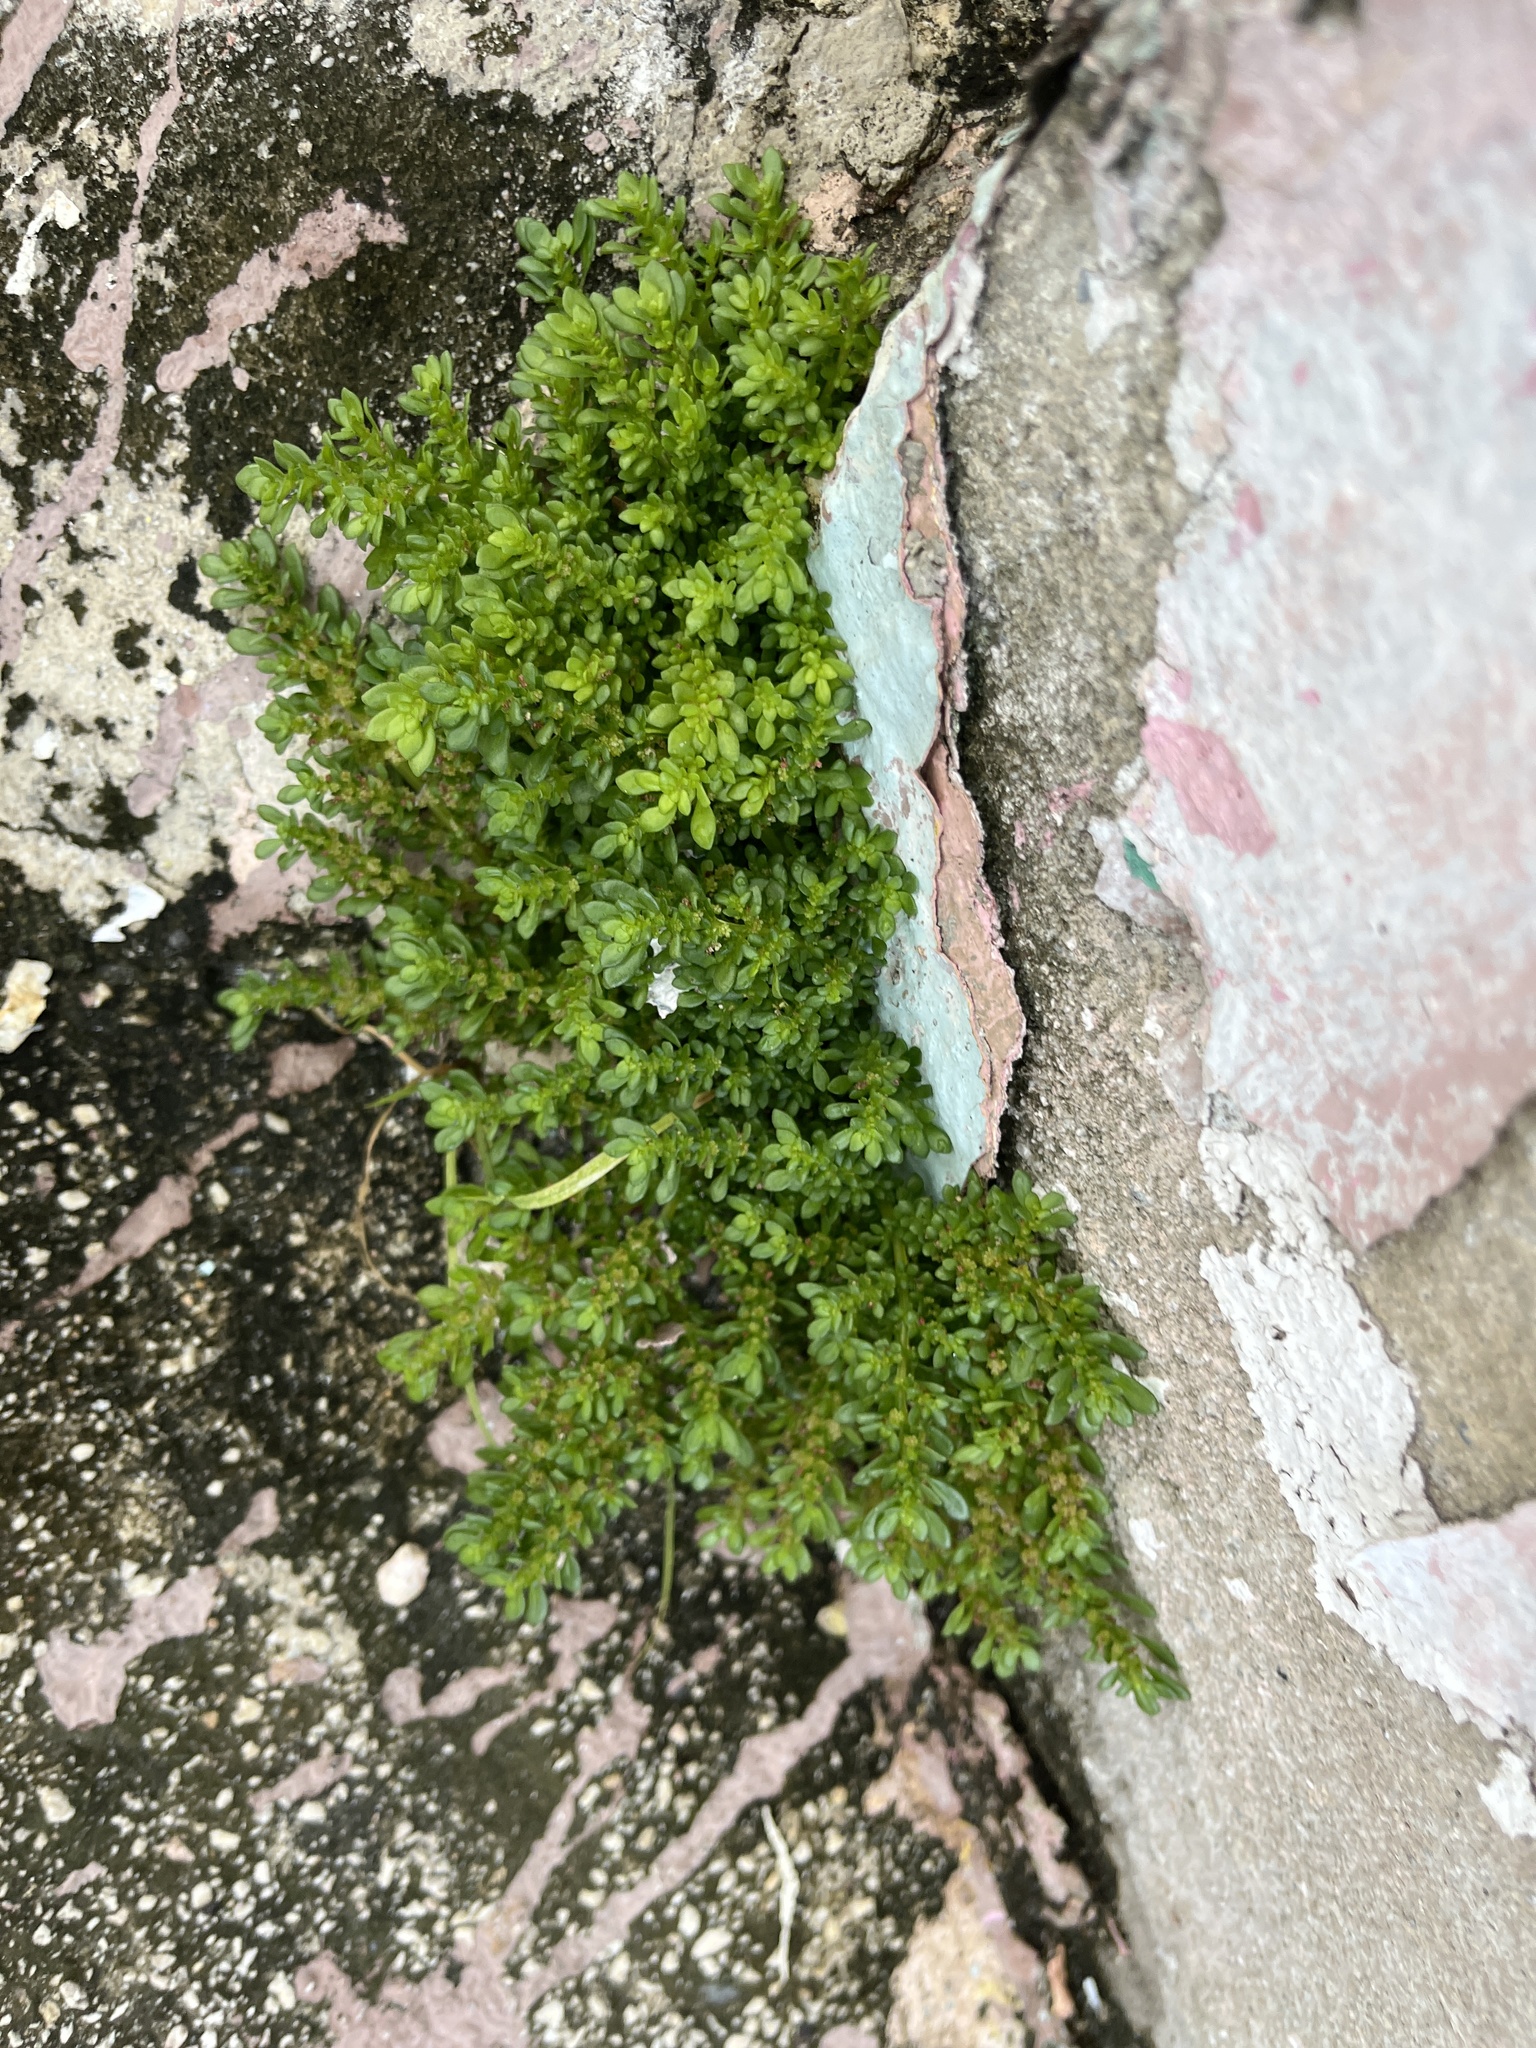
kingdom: Plantae
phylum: Tracheophyta
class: Magnoliopsida
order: Rosales
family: Urticaceae
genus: Pilea
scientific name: Pilea microphylla
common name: Artillery-plant
